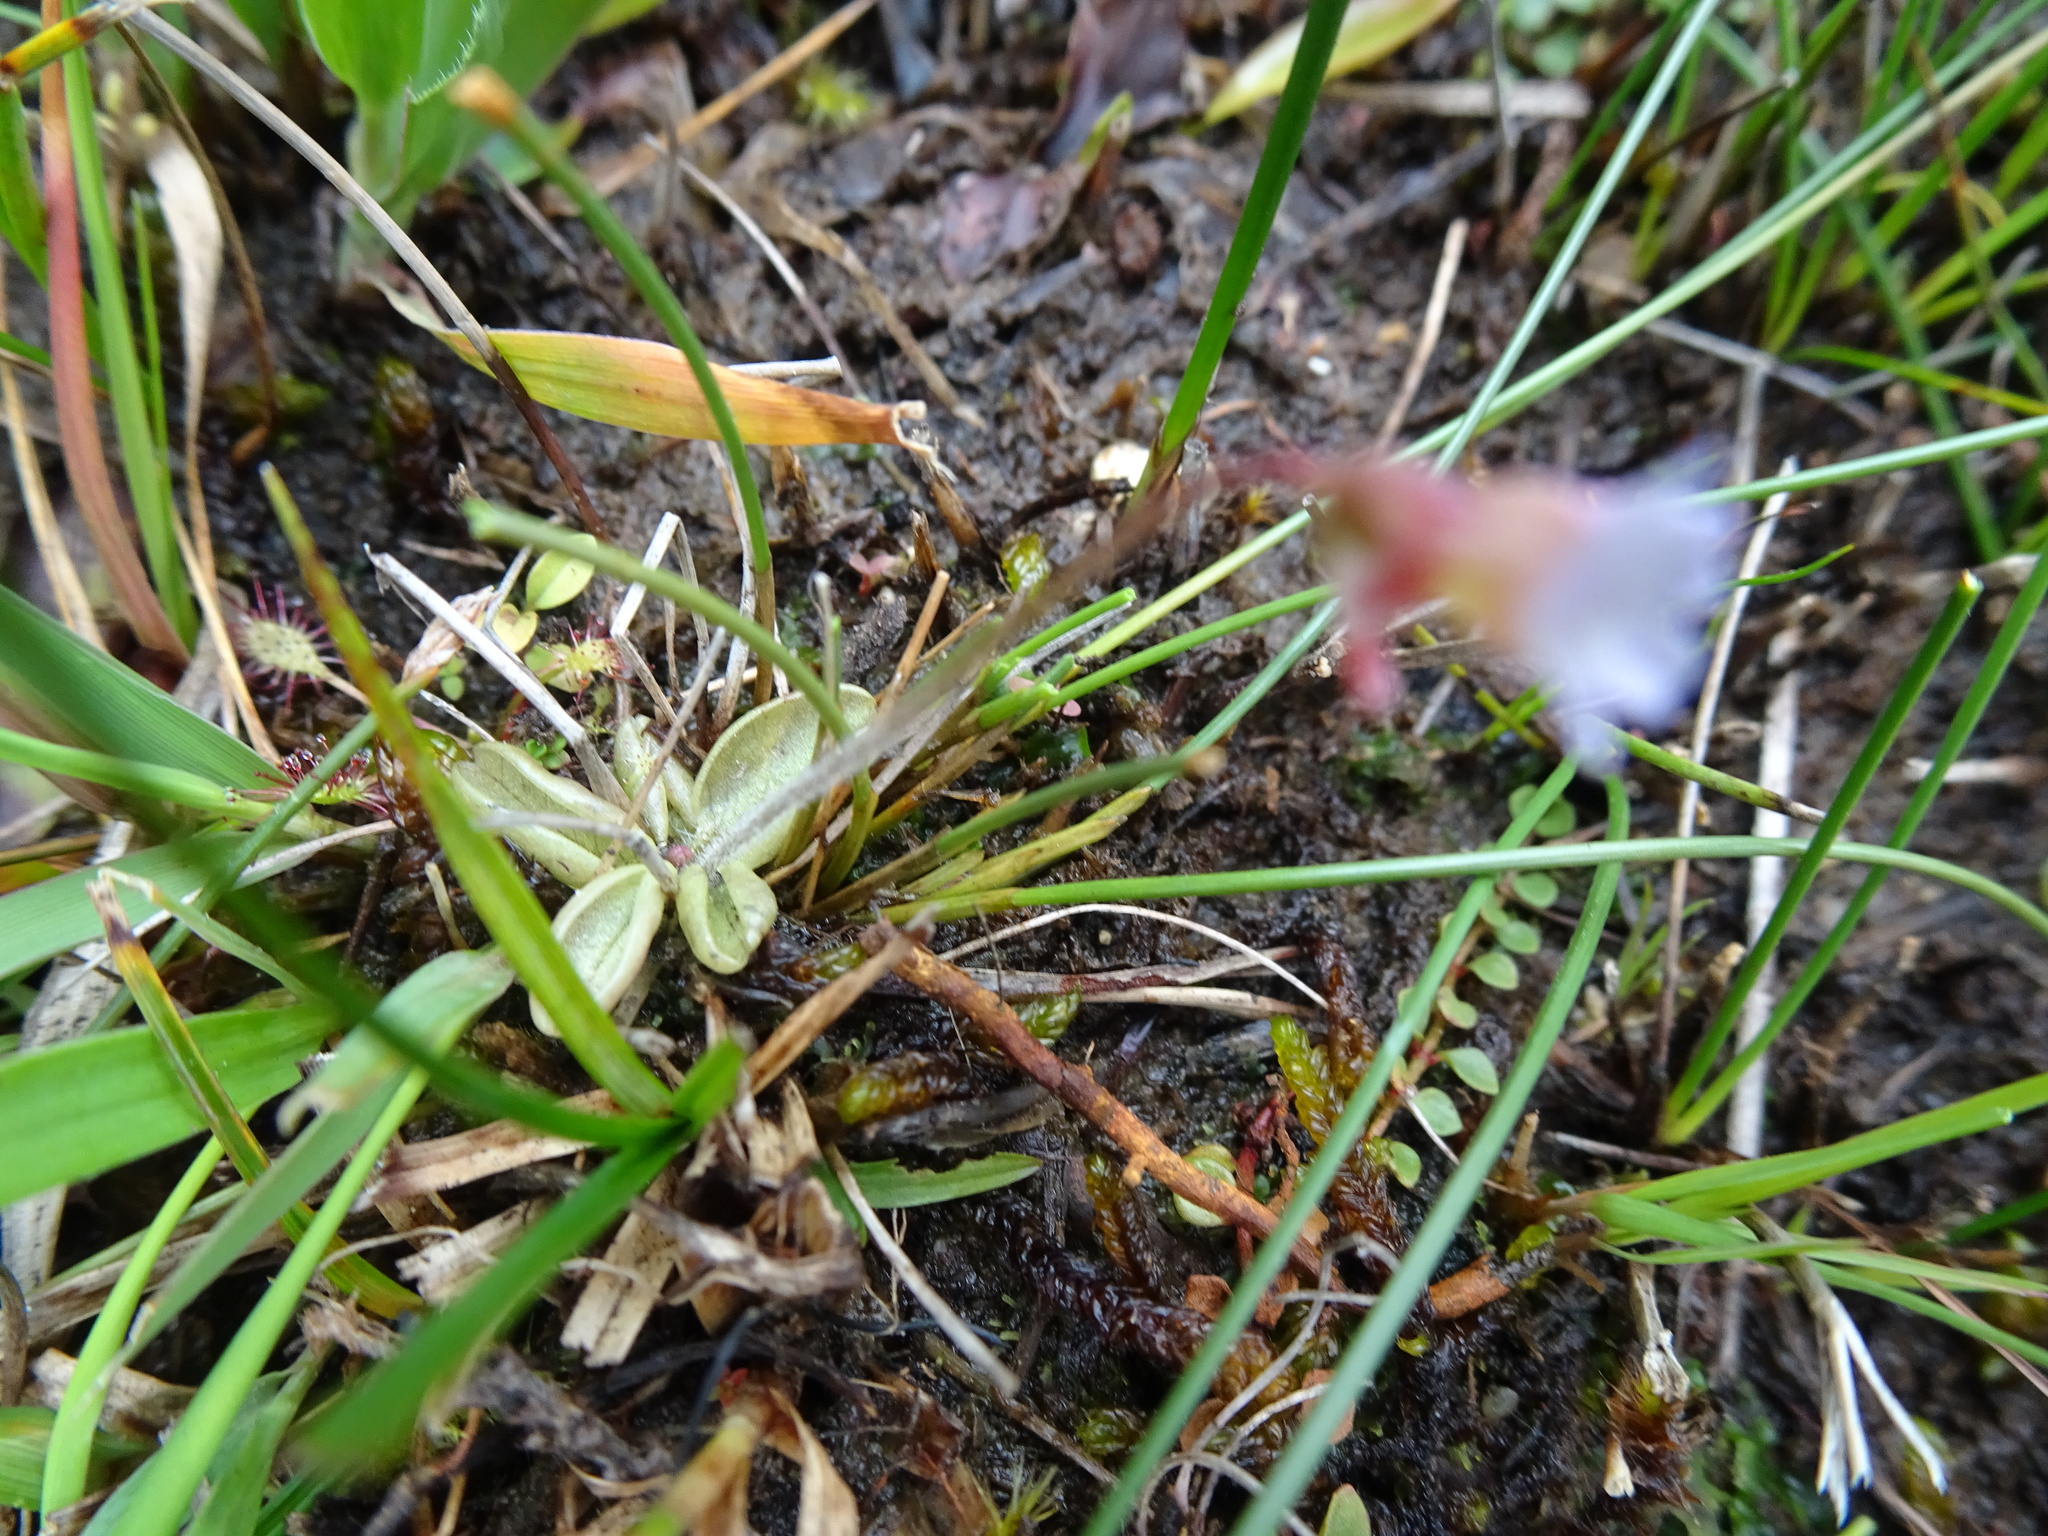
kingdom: Plantae
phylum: Tracheophyta
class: Magnoliopsida
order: Lamiales
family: Lentibulariaceae
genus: Pinguicula
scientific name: Pinguicula lusitanica
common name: Pale butterwort
